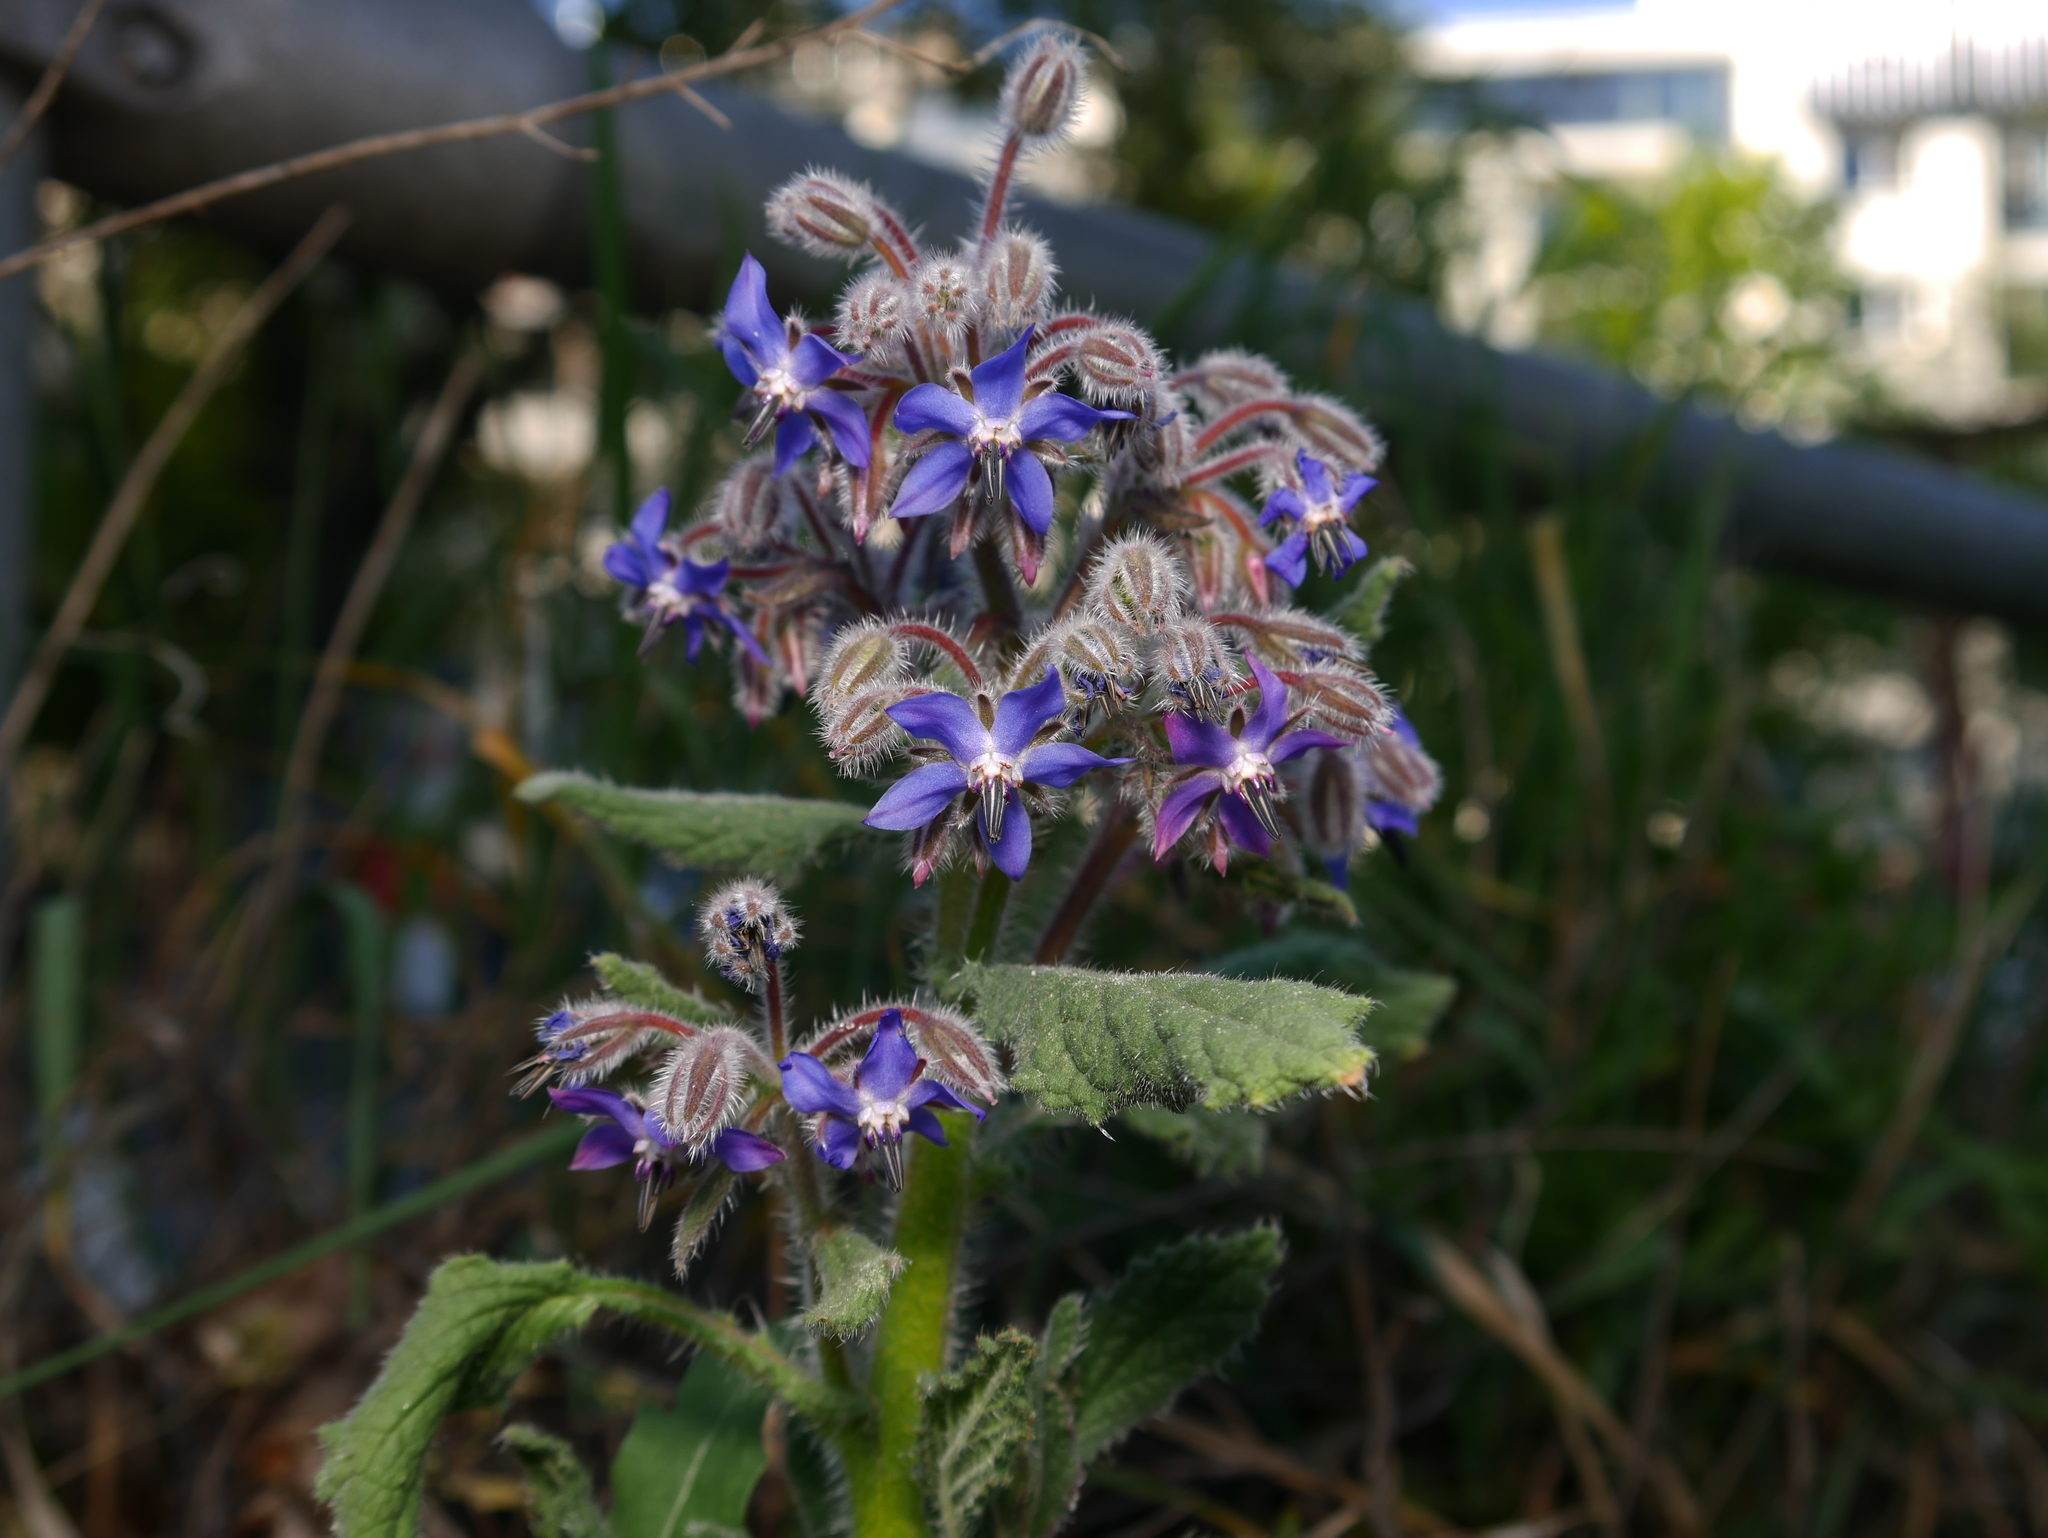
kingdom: Plantae
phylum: Tracheophyta
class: Magnoliopsida
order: Boraginales
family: Boraginaceae
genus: Borago
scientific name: Borago officinalis
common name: Borage
